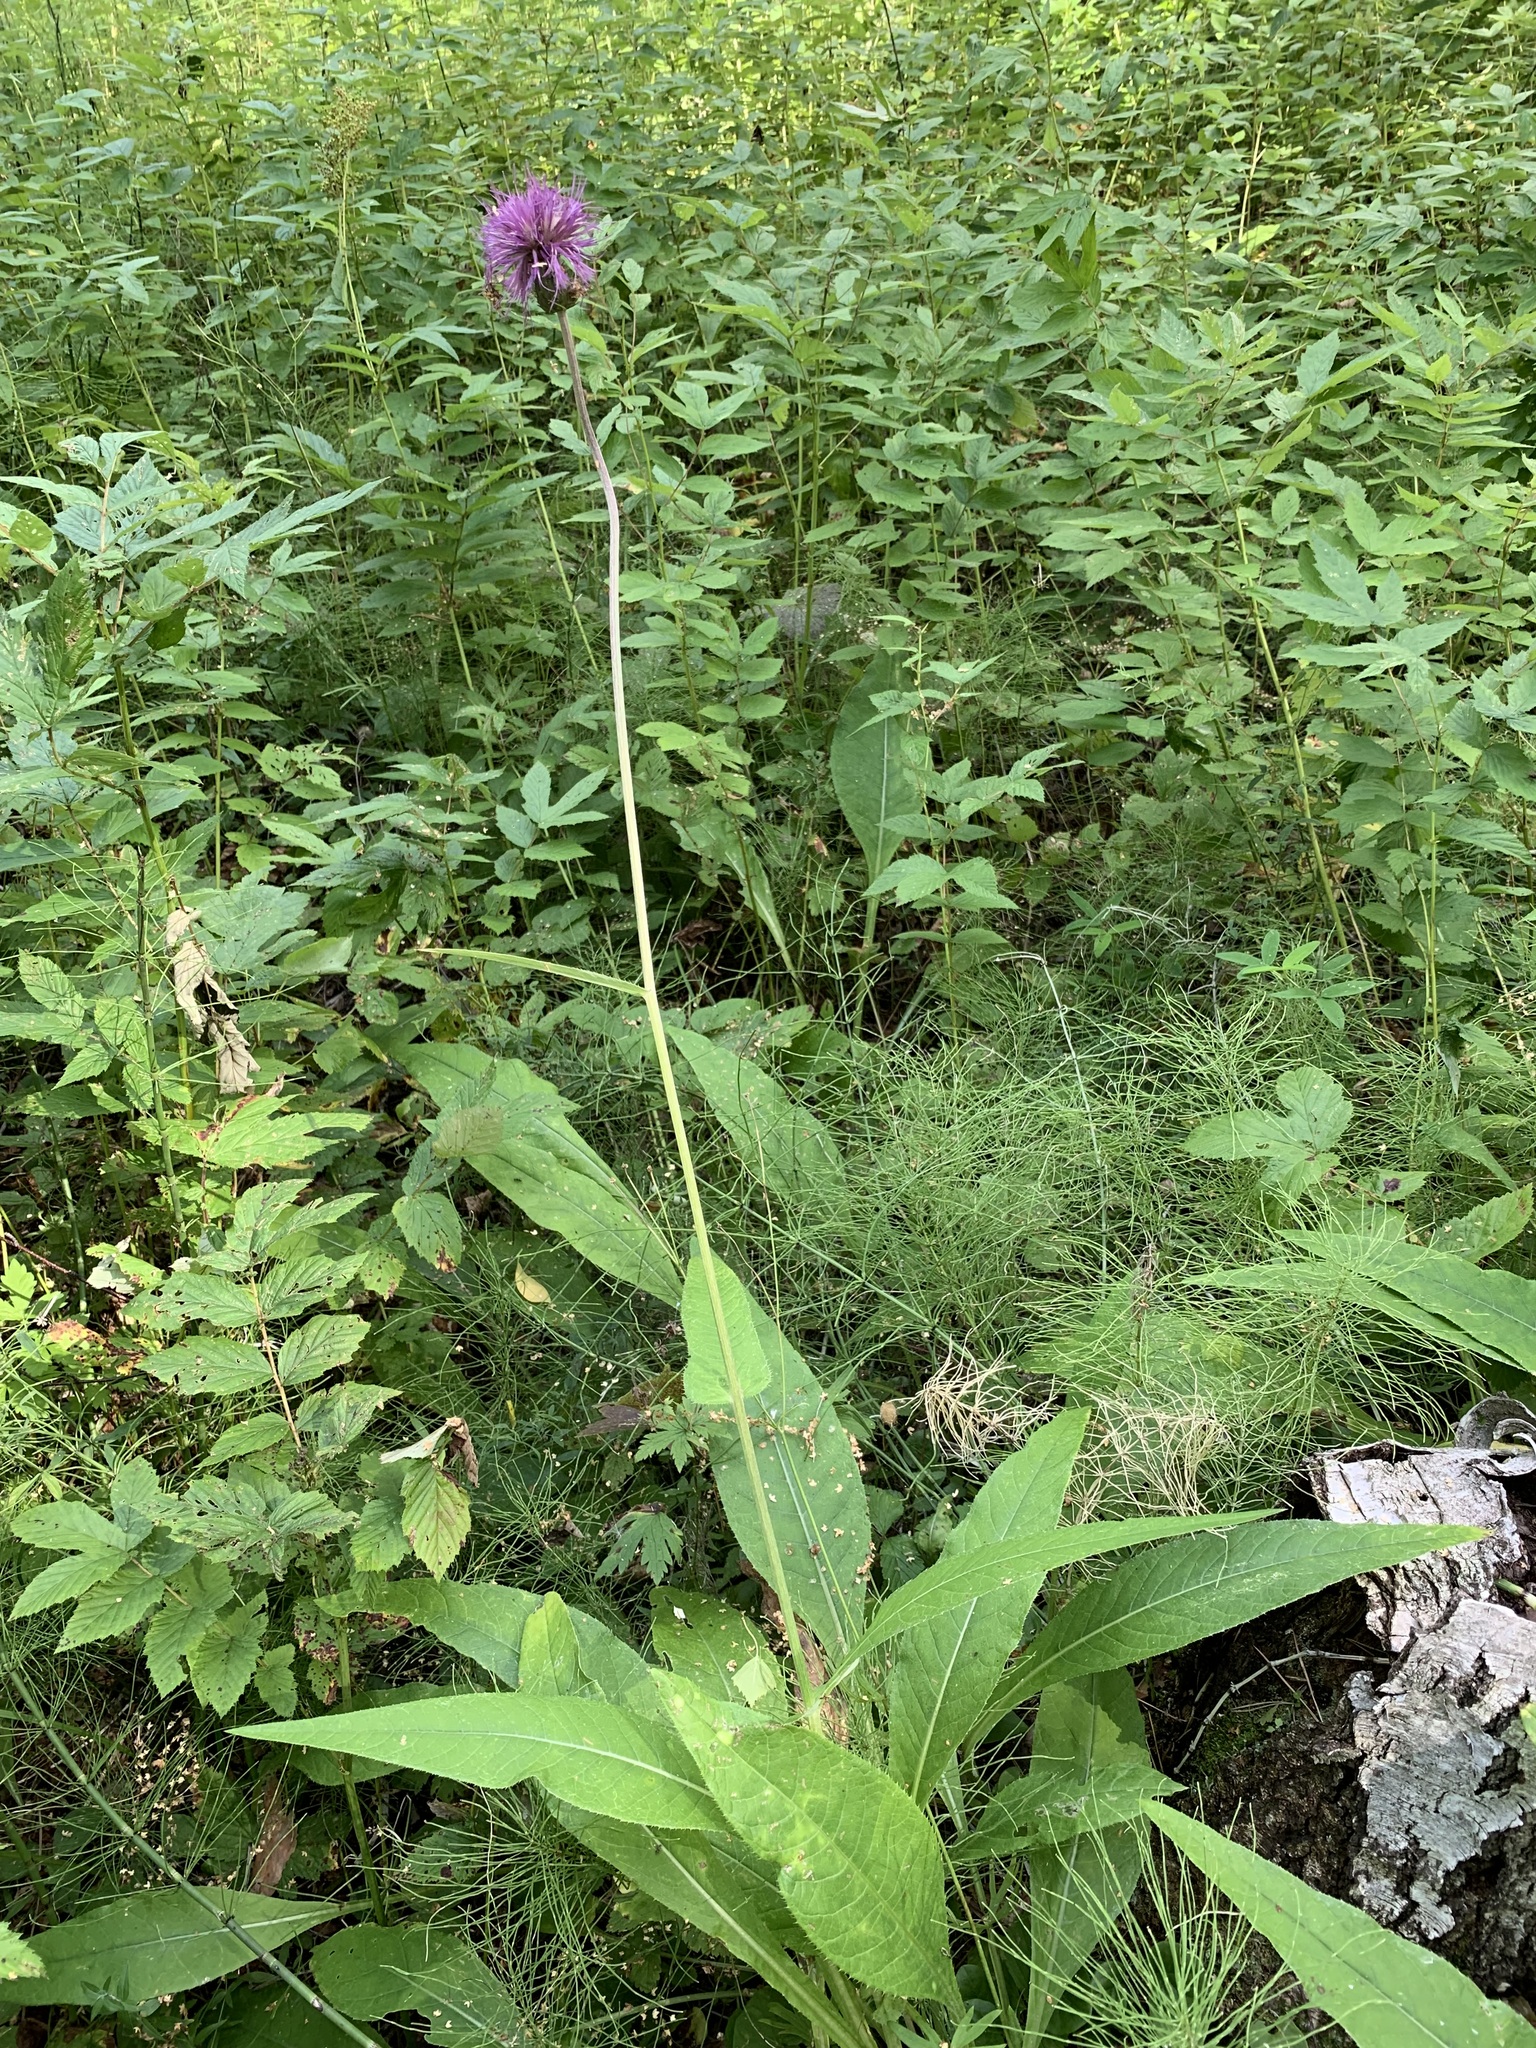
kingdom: Plantae
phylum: Tracheophyta
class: Magnoliopsida
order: Asterales
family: Asteraceae
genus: Cirsium
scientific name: Cirsium heterophyllum
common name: Melancholy thistle
